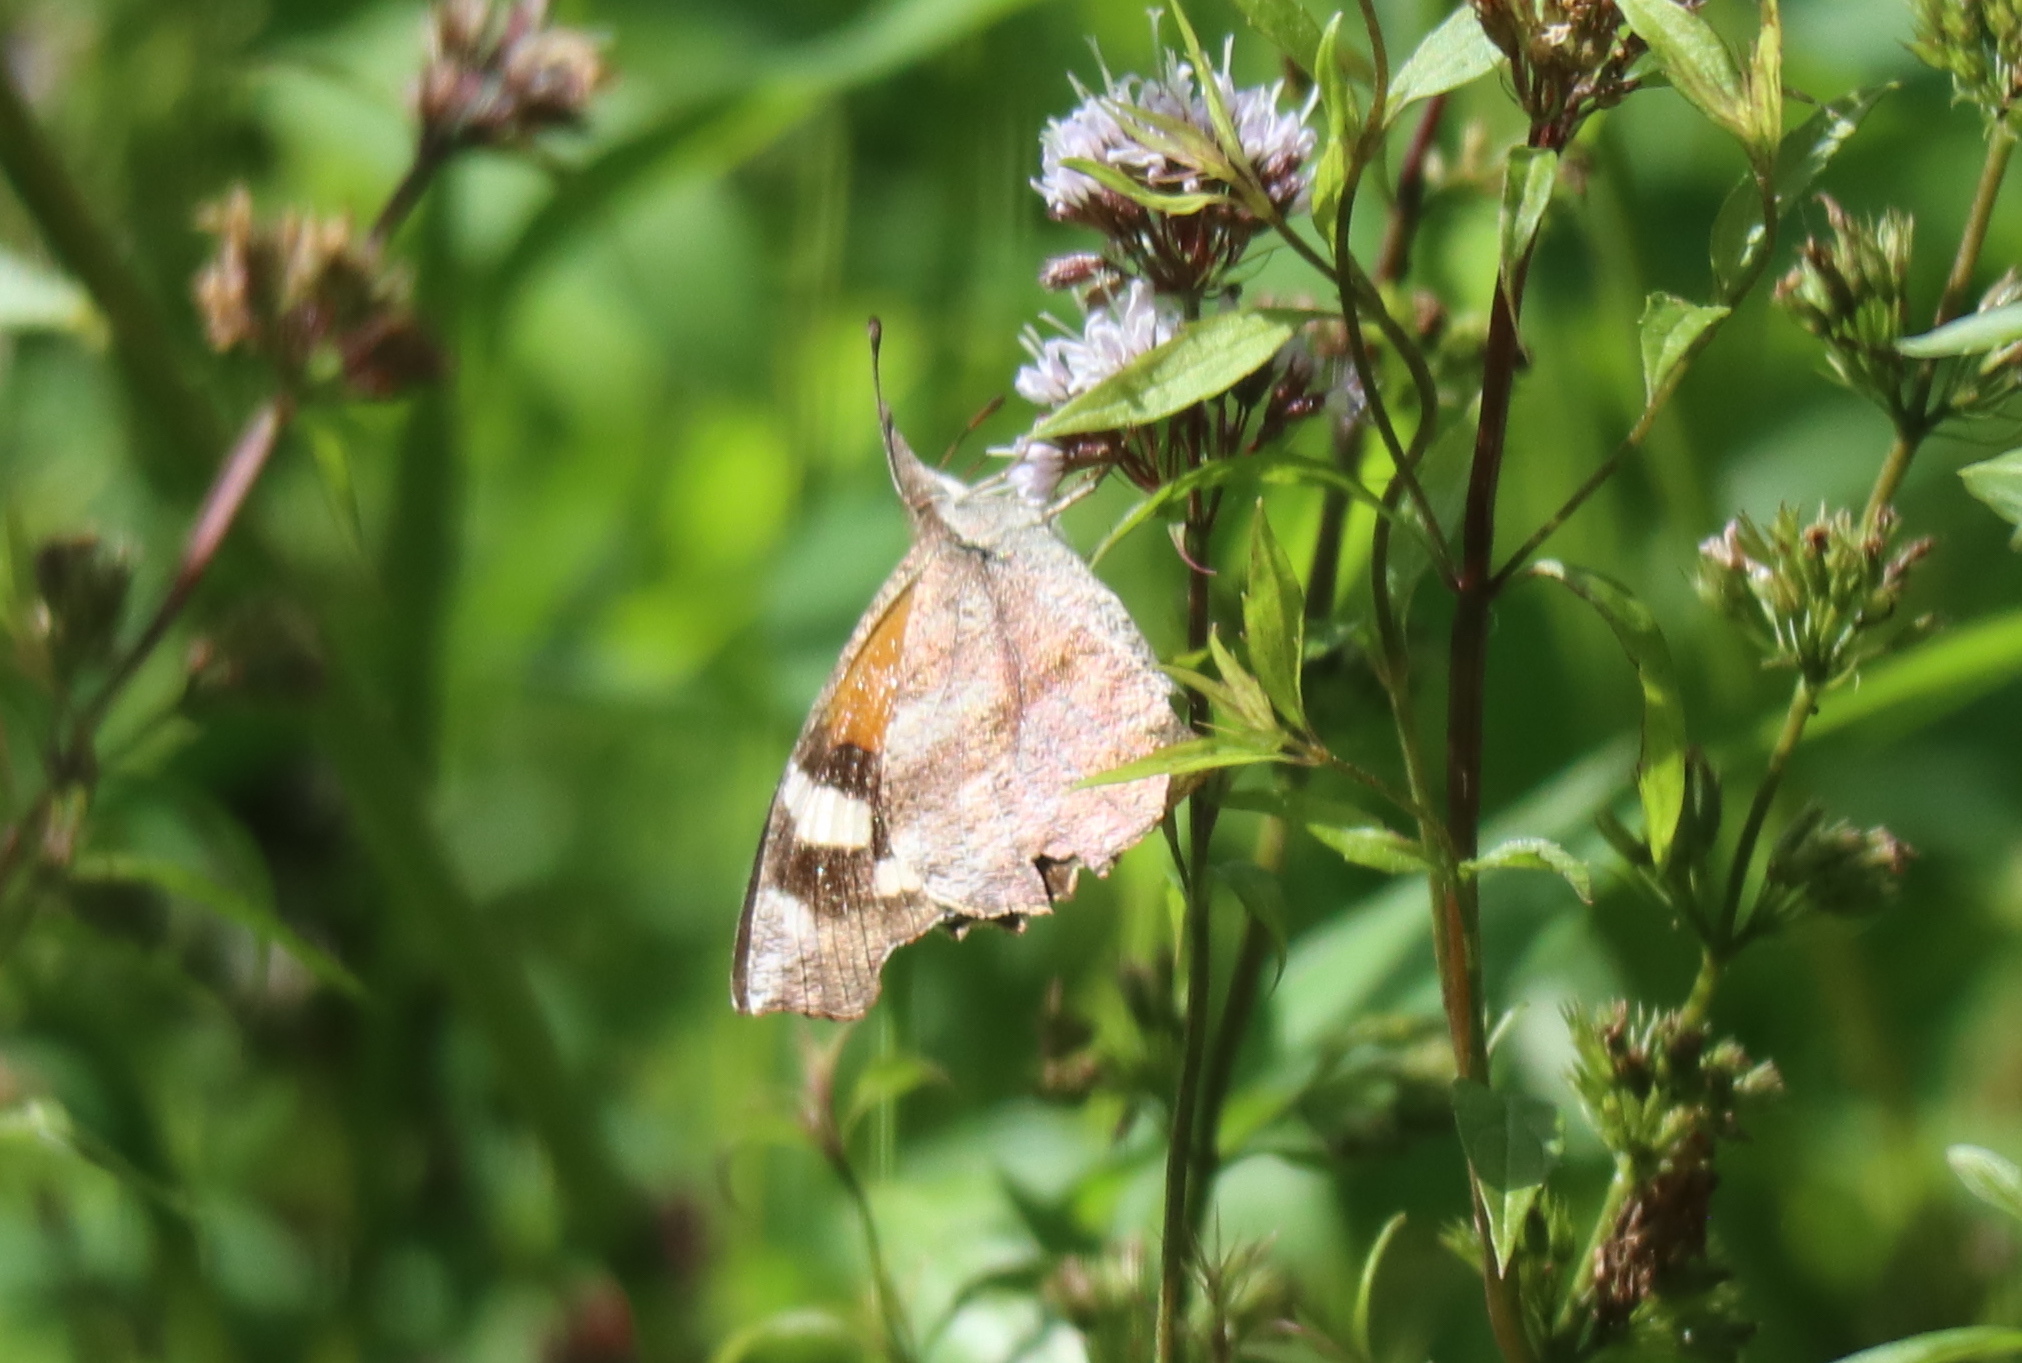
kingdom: Animalia
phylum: Arthropoda
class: Insecta
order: Lepidoptera
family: Nymphalidae
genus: Libytheana
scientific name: Libytheana carinenta
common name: American snout
